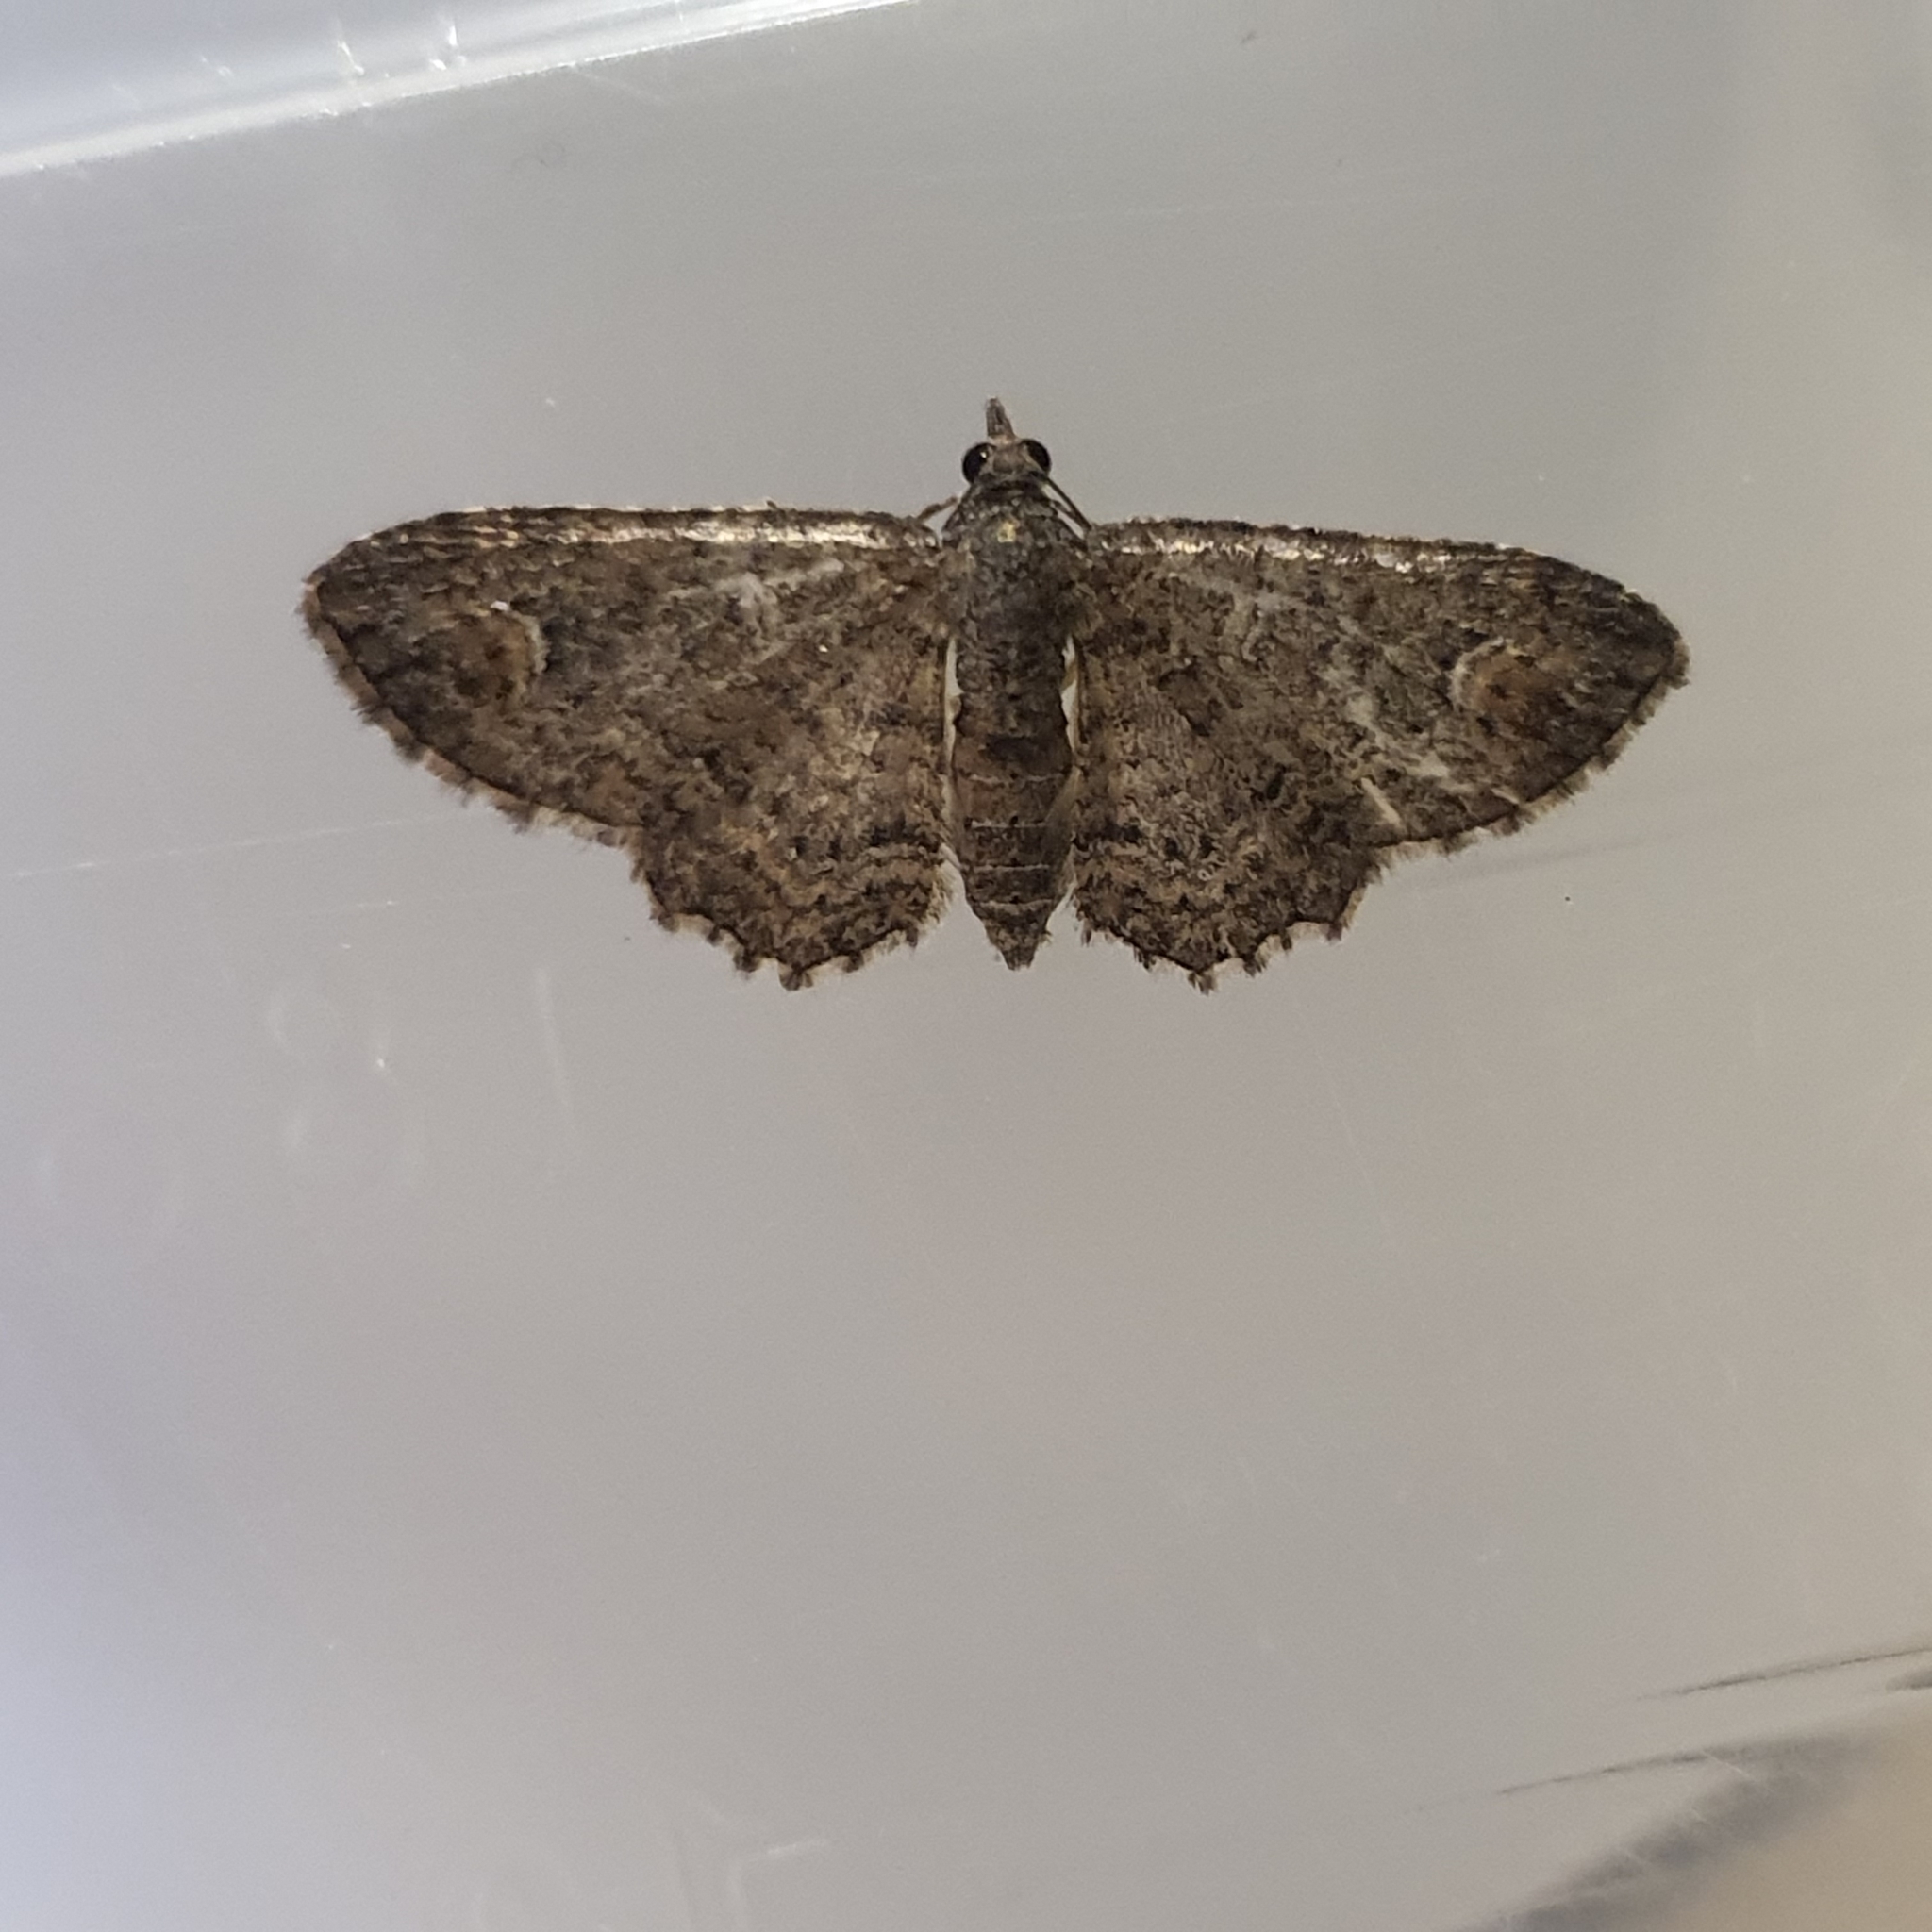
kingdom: Animalia
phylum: Arthropoda
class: Insecta
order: Lepidoptera
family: Geometridae
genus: Pasiphilodes
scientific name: Pasiphilodes testulata
